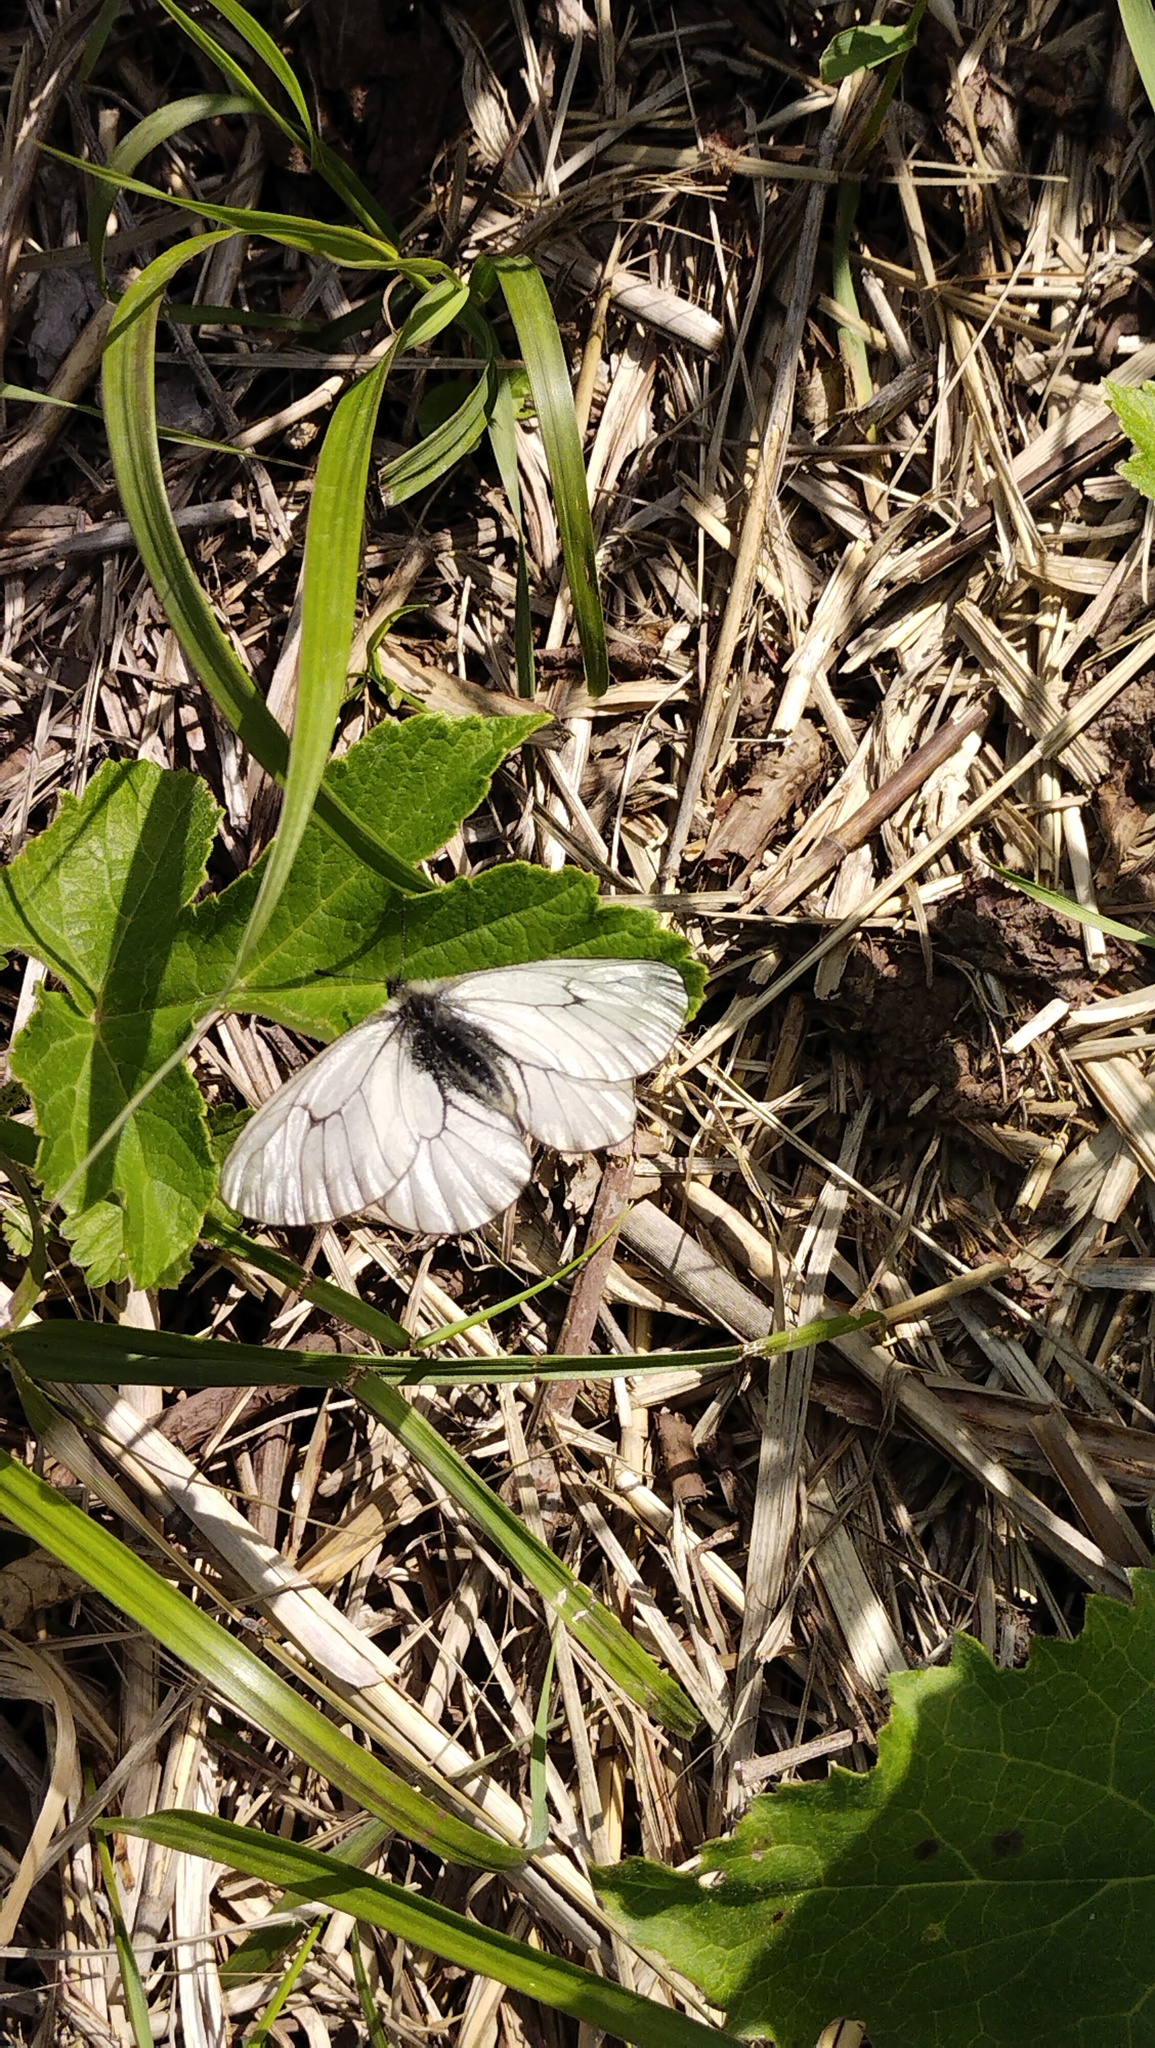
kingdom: Animalia
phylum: Arthropoda
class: Insecta
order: Lepidoptera
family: Papilionidae
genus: Parnassius
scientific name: Parnassius stubbendorfii
